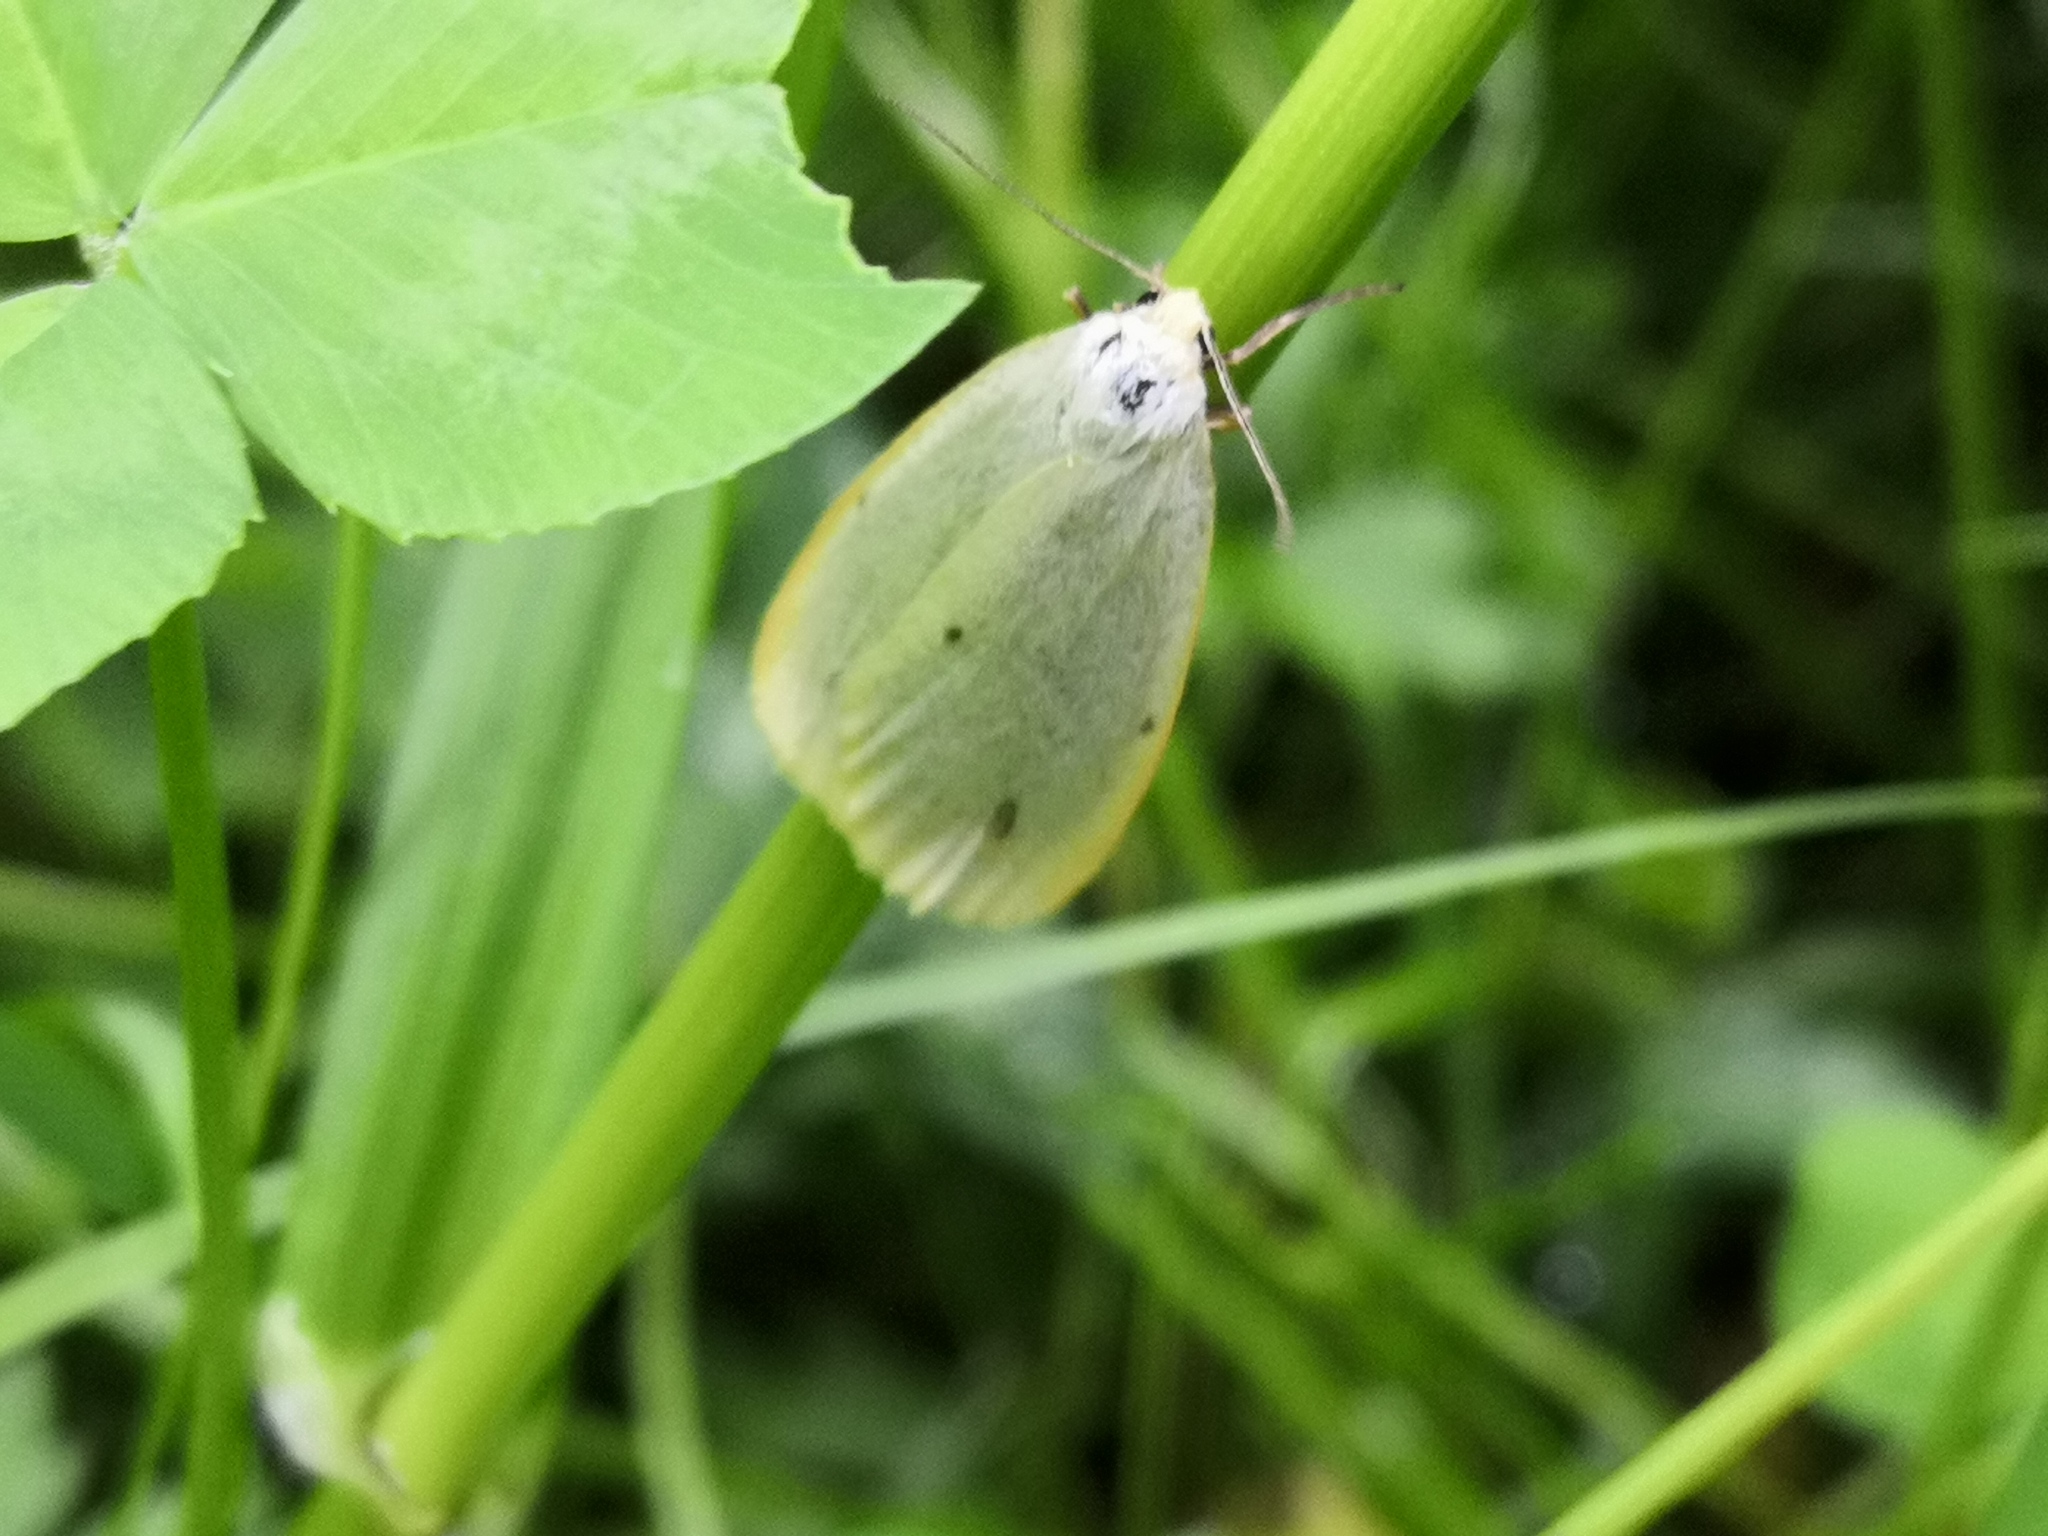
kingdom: Animalia
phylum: Arthropoda
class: Insecta
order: Lepidoptera
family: Erebidae
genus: Cybosia
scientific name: Cybosia mesomella
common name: Four-dotted footman
